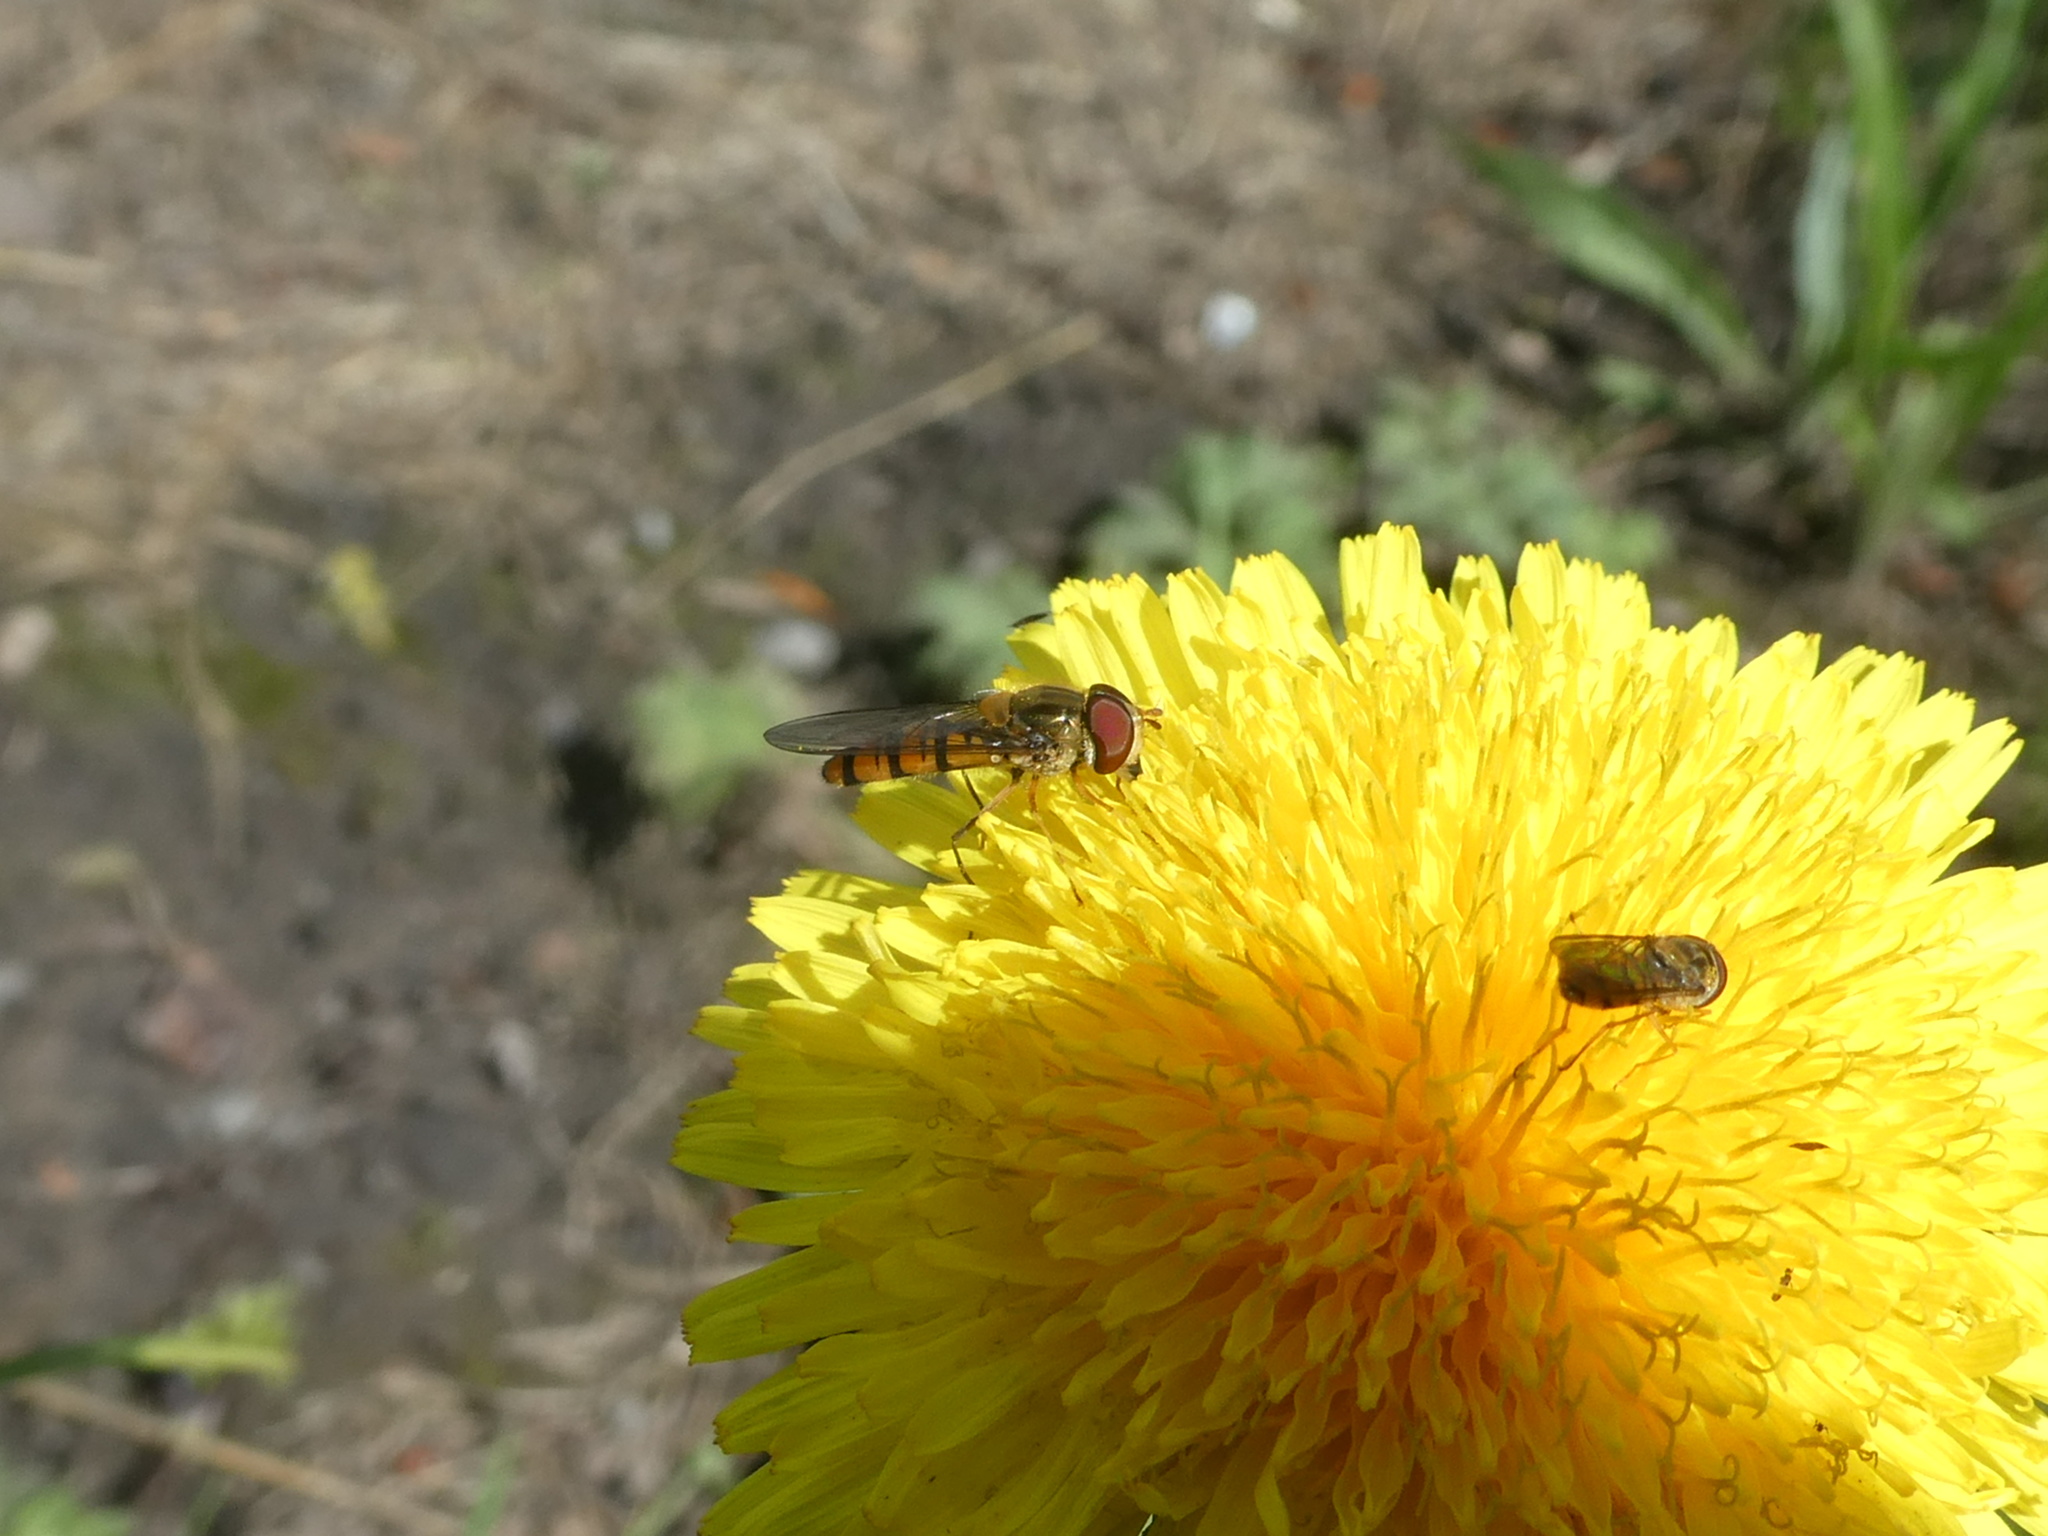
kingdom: Animalia
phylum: Arthropoda
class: Insecta
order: Diptera
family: Syrphidae
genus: Episyrphus
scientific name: Episyrphus balteatus
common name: Marmalade hoverfly
